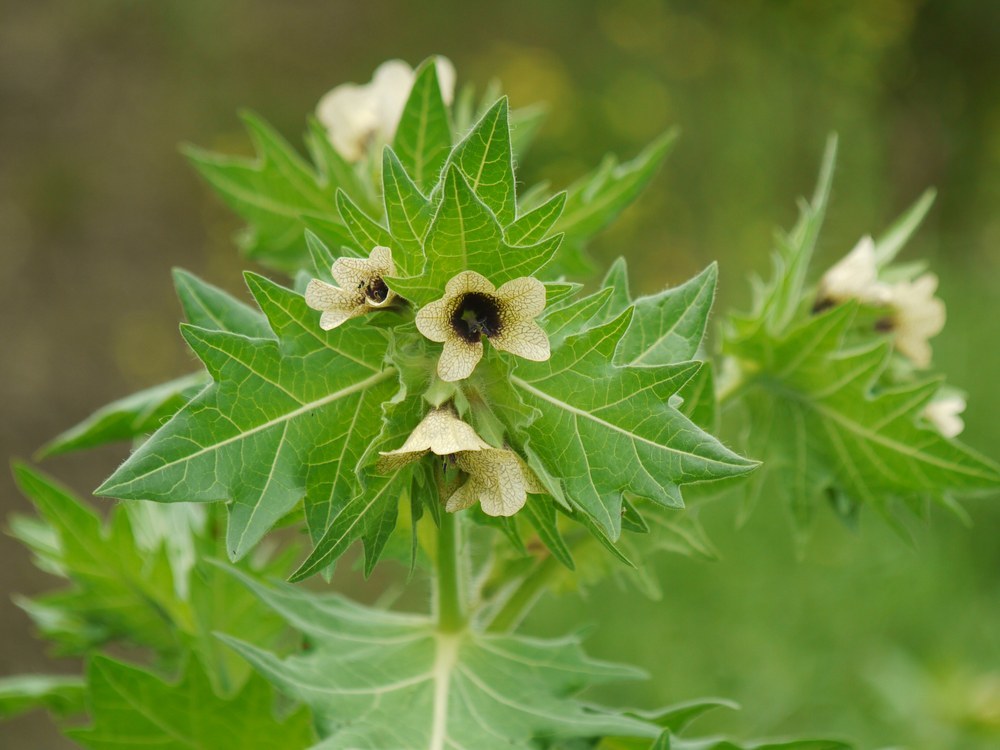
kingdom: Plantae
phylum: Tracheophyta
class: Magnoliopsida
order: Solanales
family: Solanaceae
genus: Hyoscyamus
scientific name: Hyoscyamus niger
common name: Henbane
